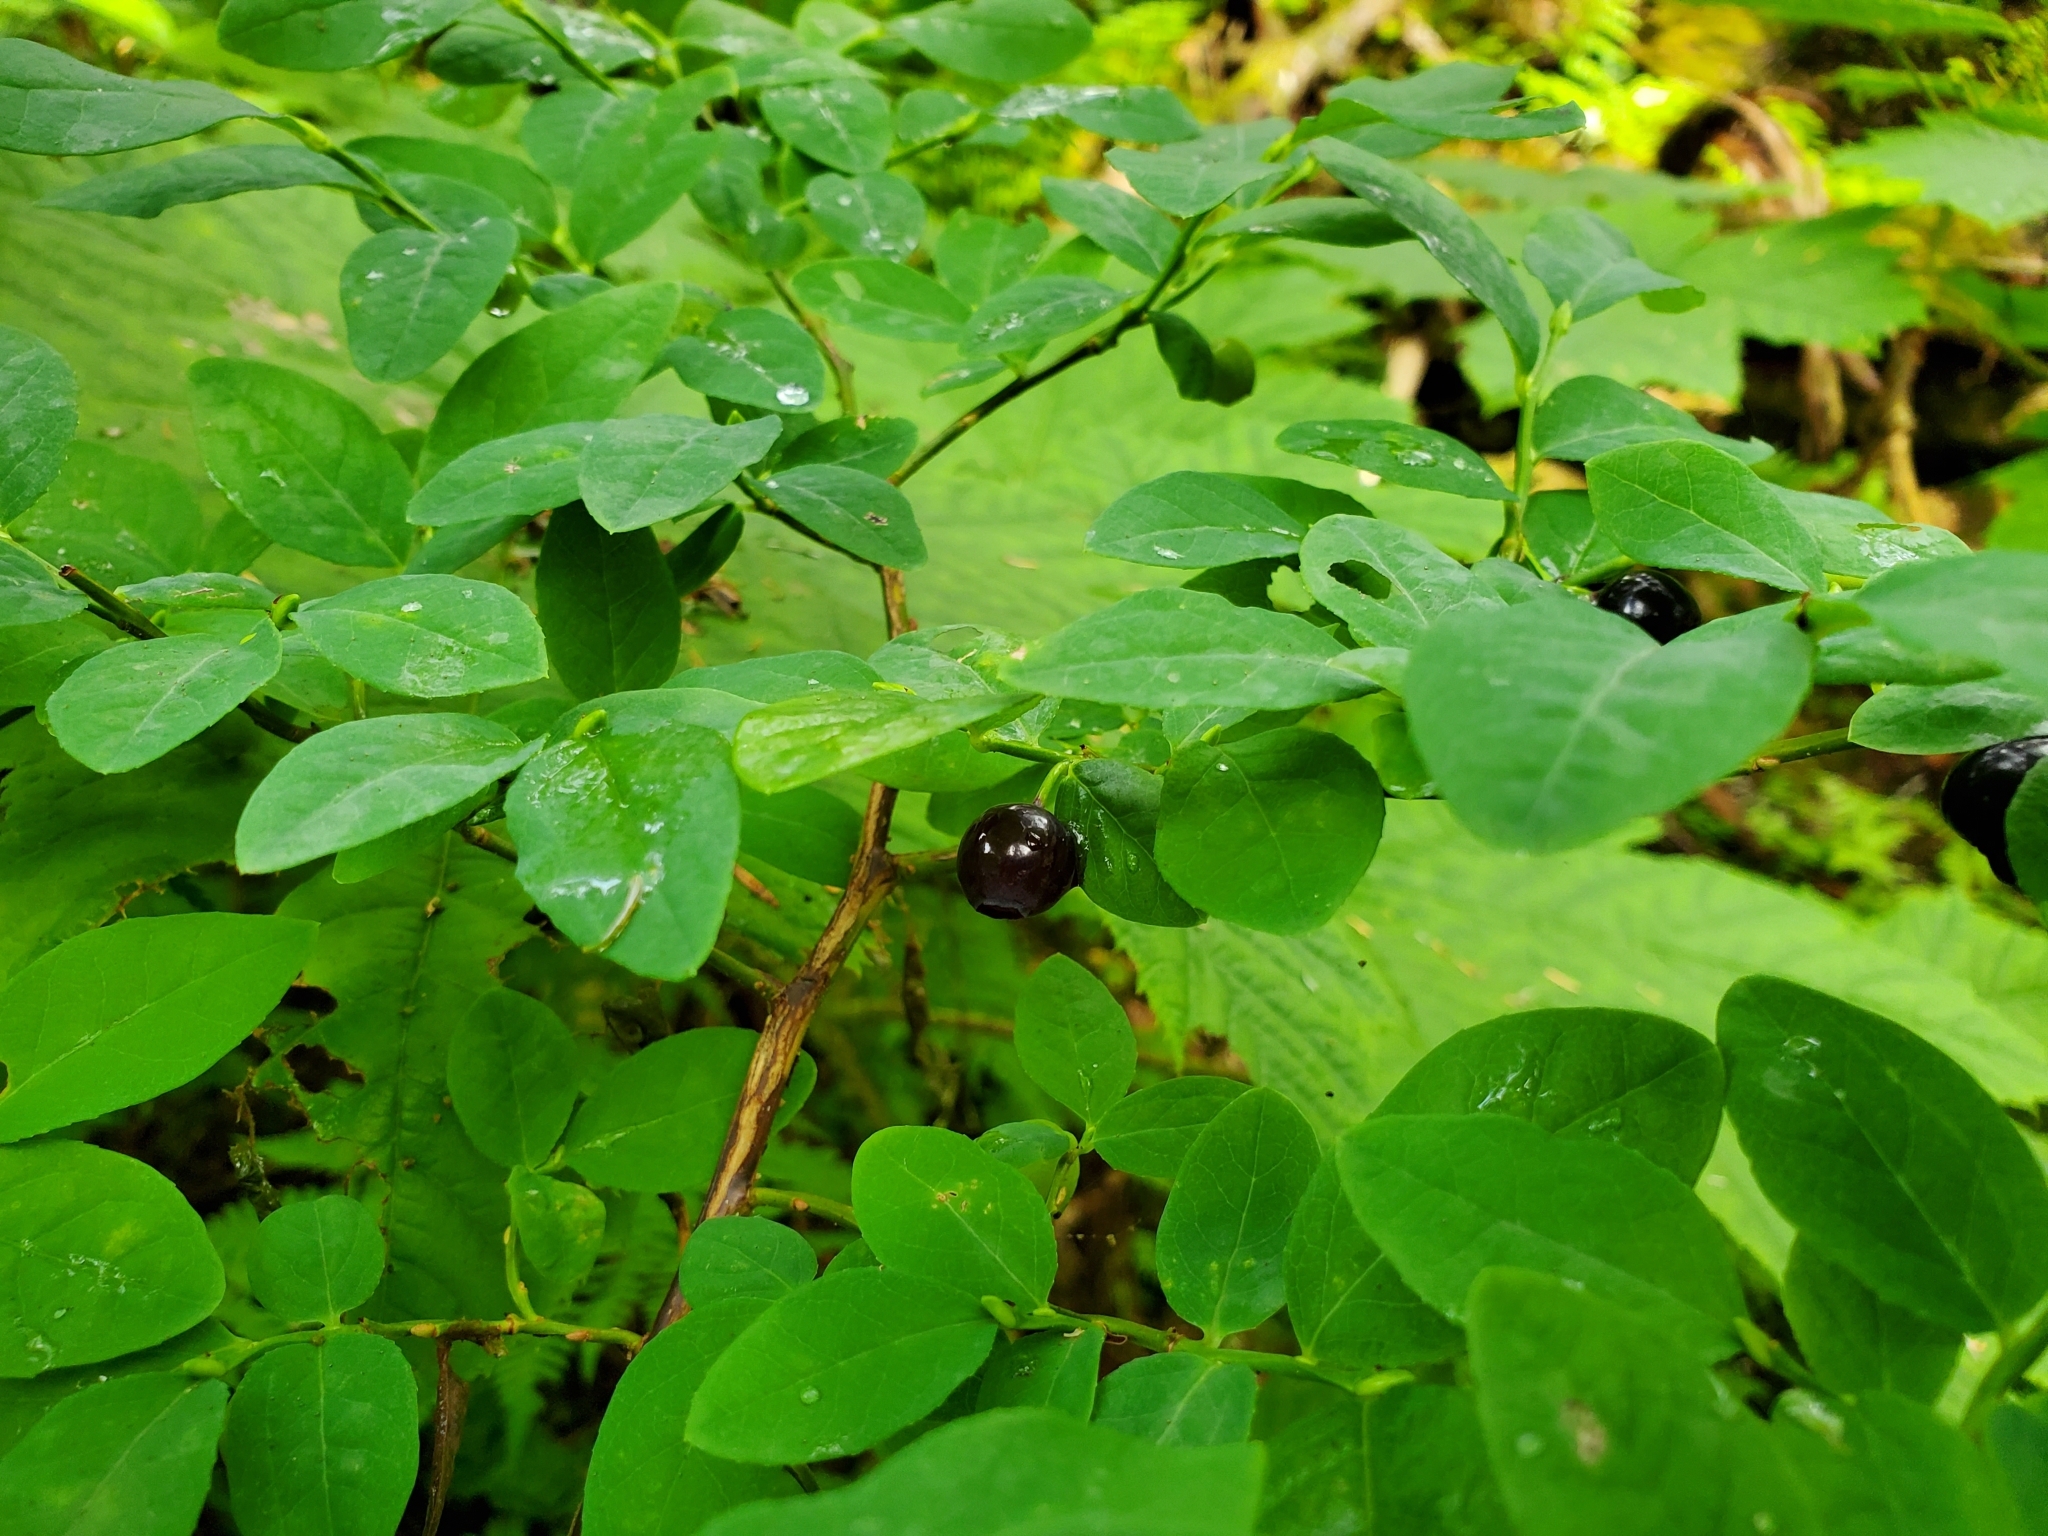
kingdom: Plantae
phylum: Tracheophyta
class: Magnoliopsida
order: Ericales
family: Ericaceae
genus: Vaccinium
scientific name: Vaccinium ovalifolium
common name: Early blueberry
